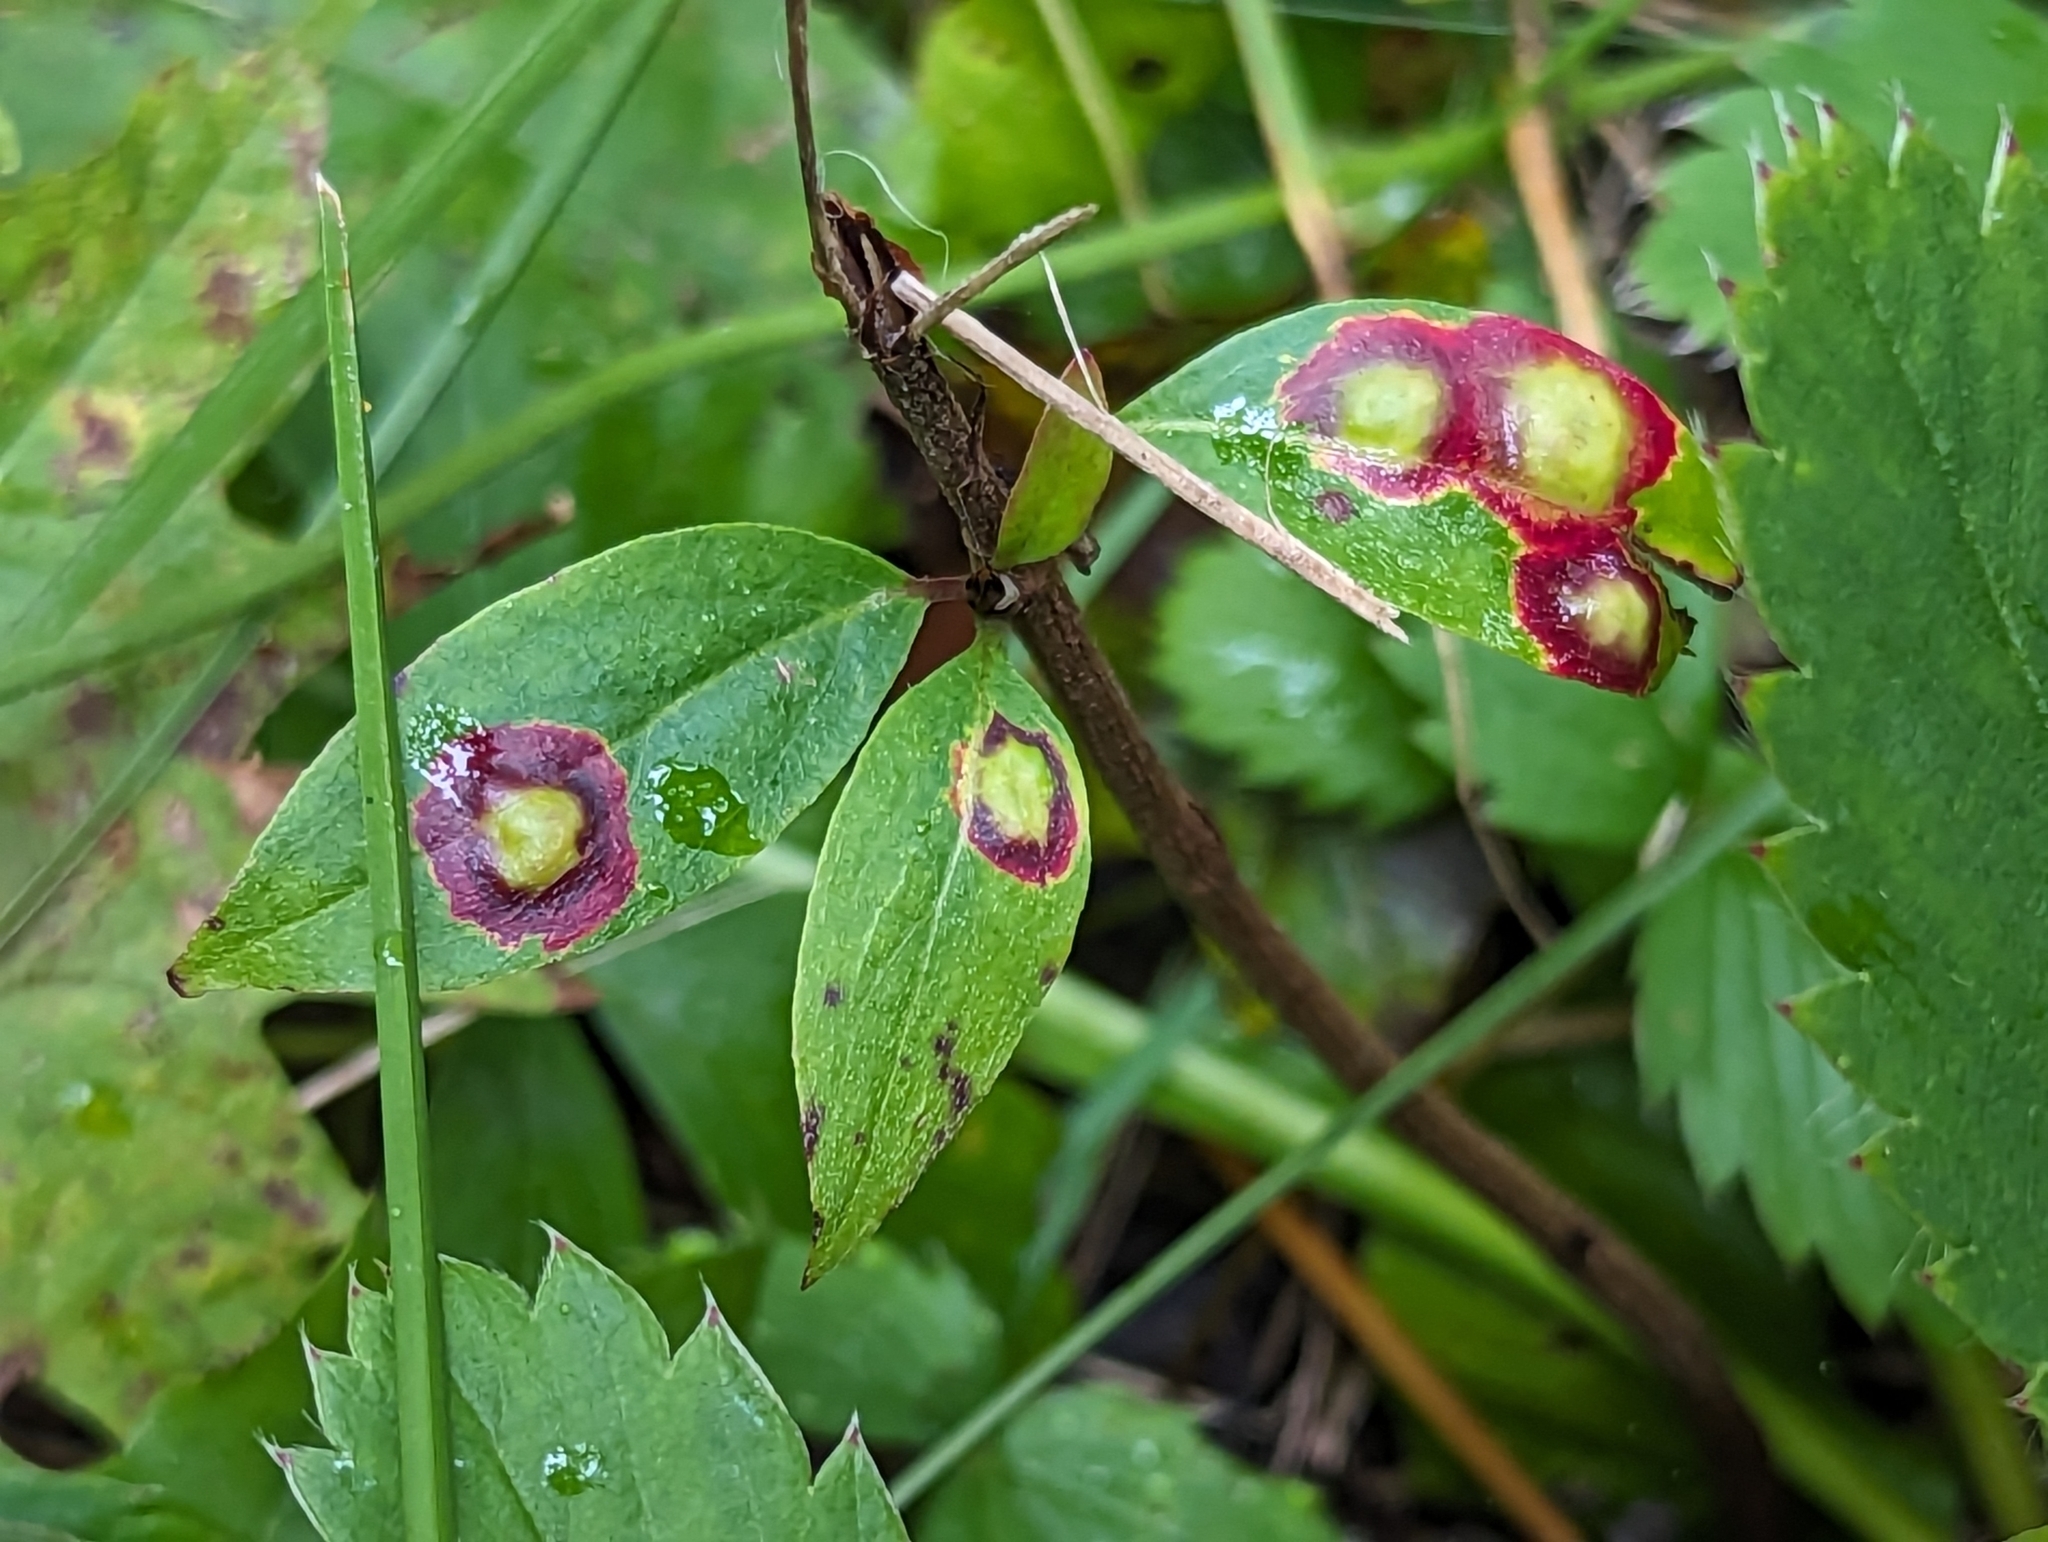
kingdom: Animalia
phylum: Arthropoda
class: Insecta
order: Diptera
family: Cecidomyiidae
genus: Parallelodiplosis
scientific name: Parallelodiplosis subtruncata
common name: Dogwood eyespot gall midge
